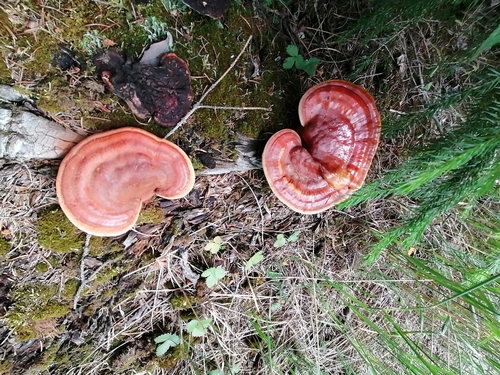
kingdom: Fungi
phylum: Basidiomycota
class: Agaricomycetes
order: Polyporales
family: Polyporaceae
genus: Ganoderma
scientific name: Ganoderma lucidum
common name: Lacquered bracket
